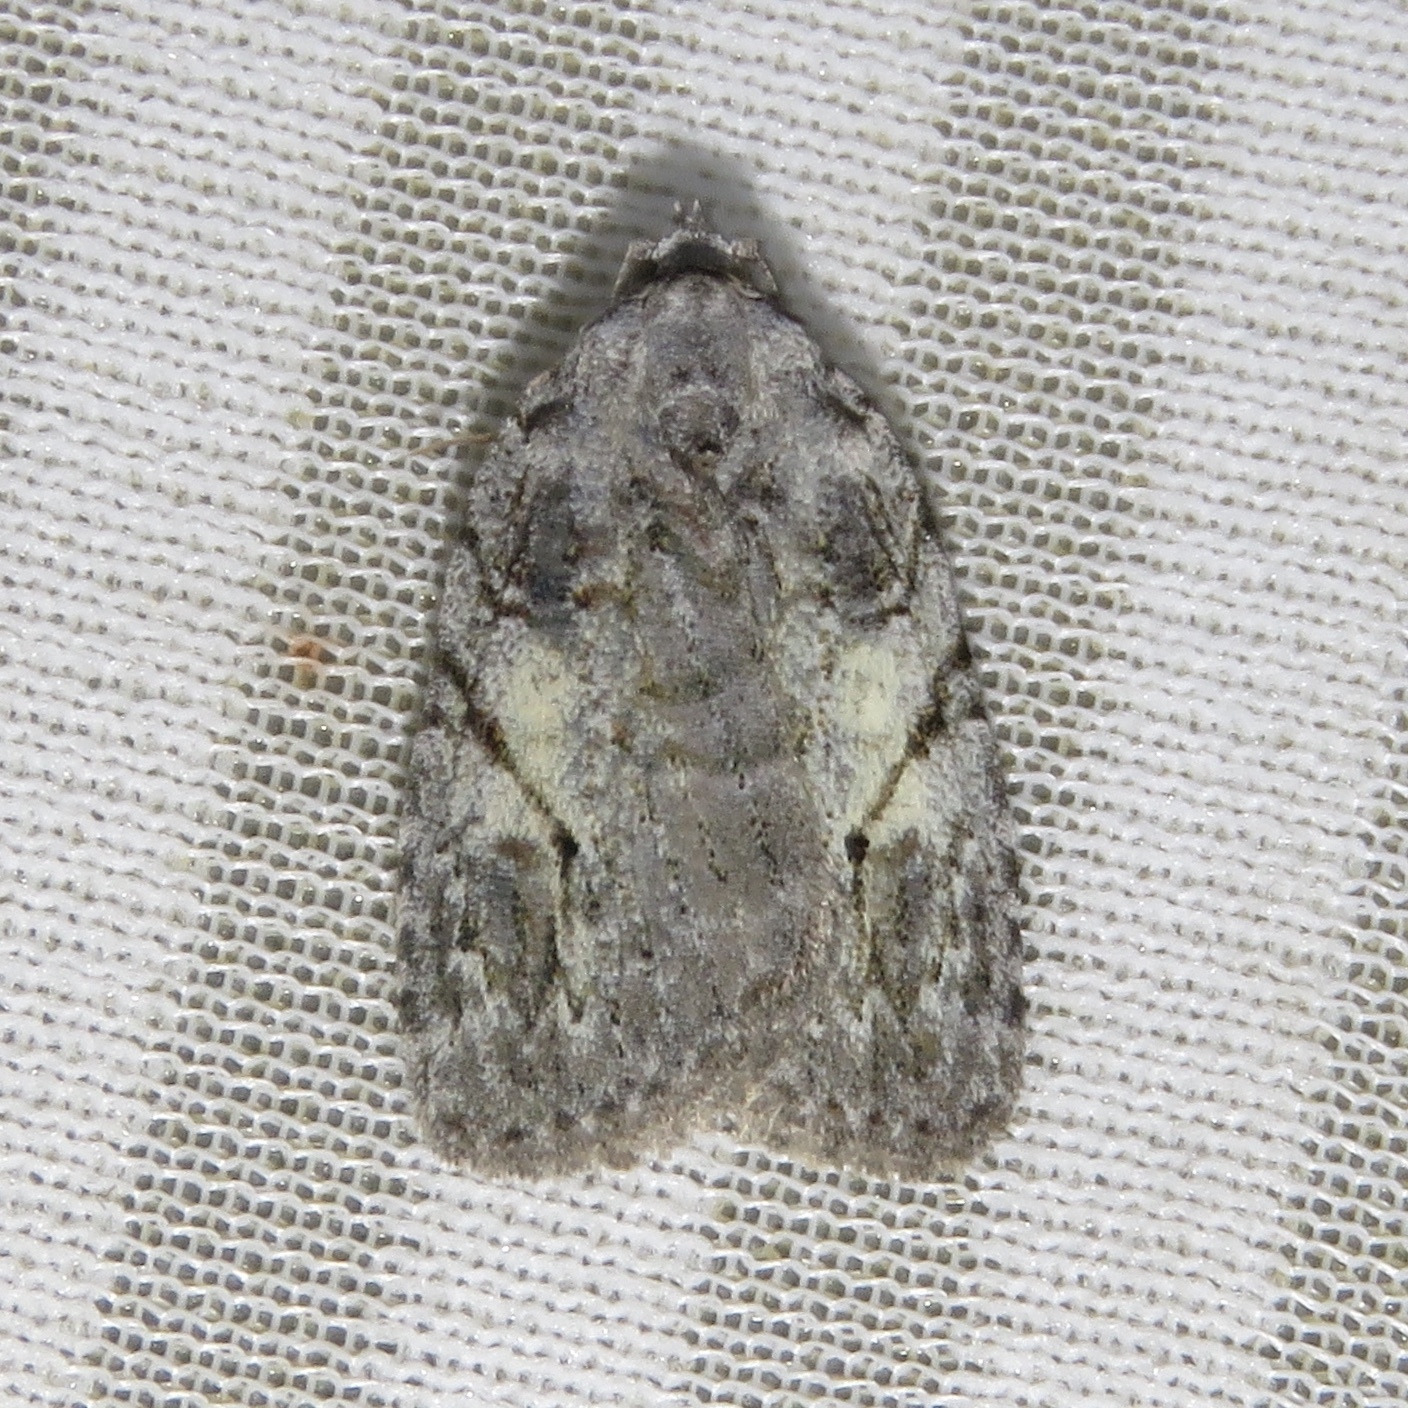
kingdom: Animalia
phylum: Arthropoda
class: Insecta
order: Lepidoptera
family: Noctuidae
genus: Balsa
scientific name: Balsa labecula
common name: White-blotched balsa moth
